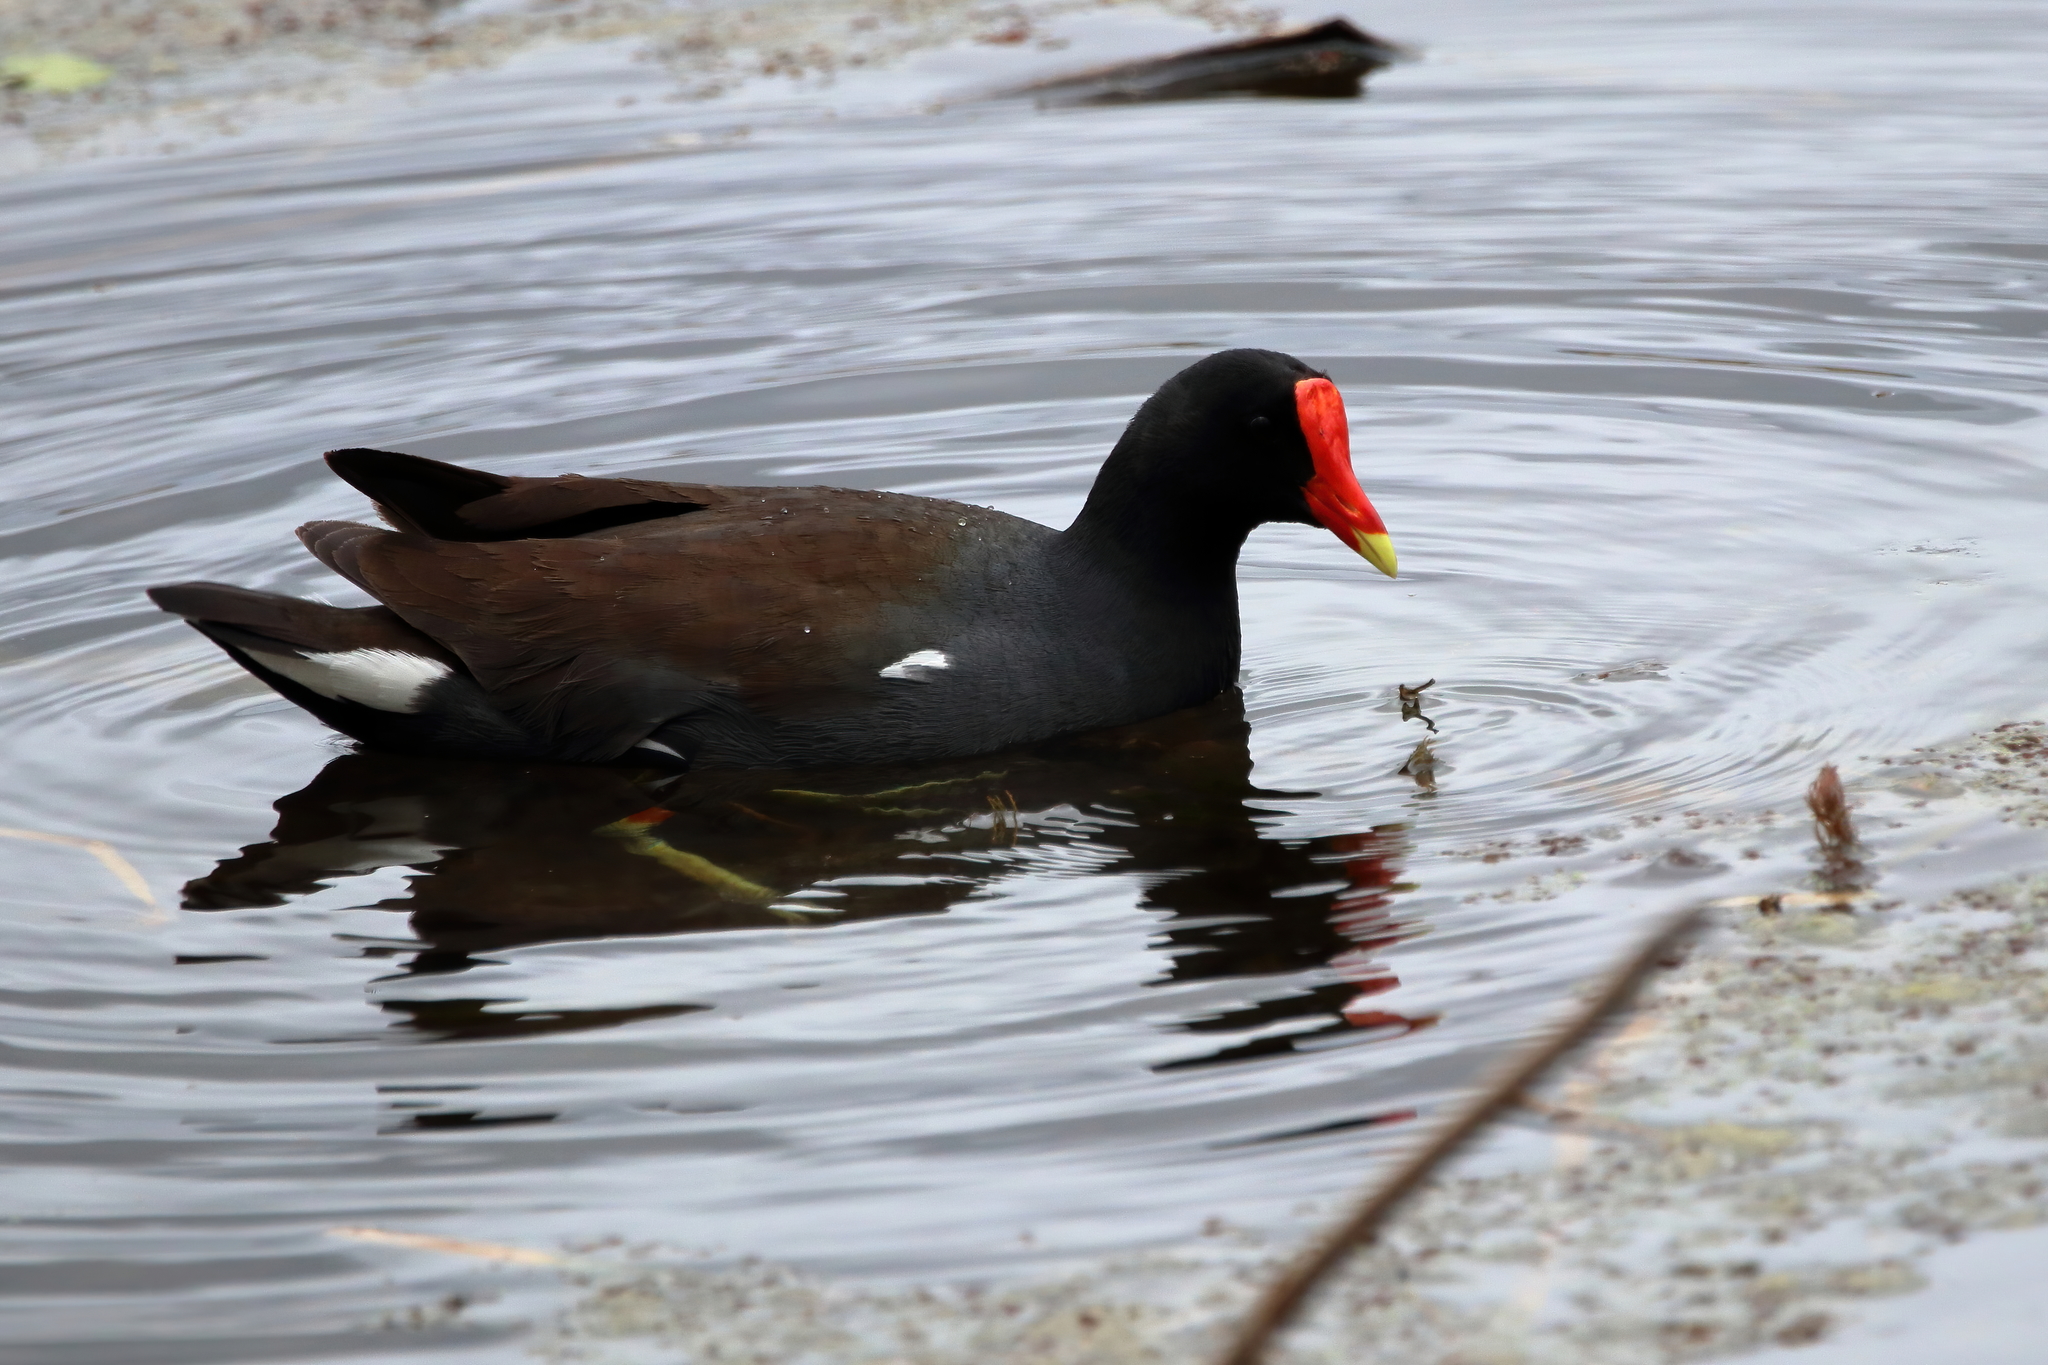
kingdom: Animalia
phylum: Chordata
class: Aves
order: Gruiformes
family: Rallidae
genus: Gallinula
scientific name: Gallinula chloropus
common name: Common moorhen
